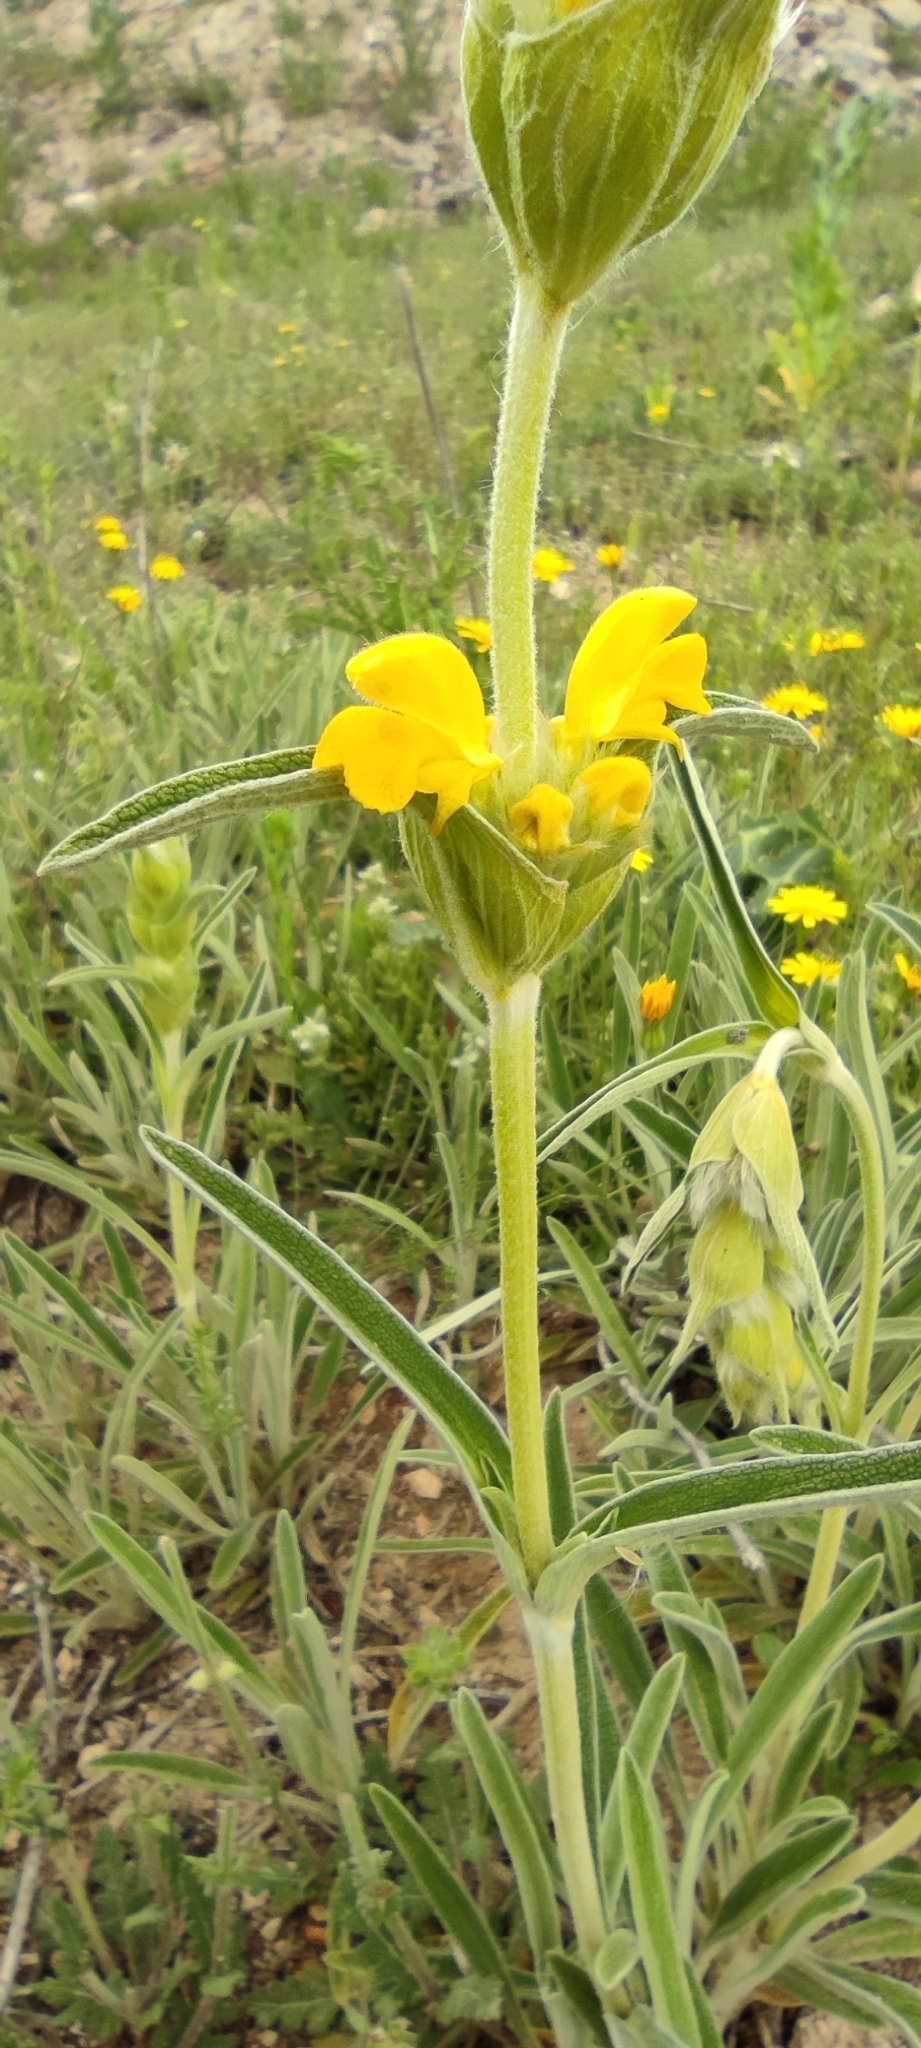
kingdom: Plantae
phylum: Tracheophyta
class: Magnoliopsida
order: Lamiales
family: Lamiaceae
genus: Phlomis
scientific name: Phlomis lychnitis
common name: Lampwickplant
